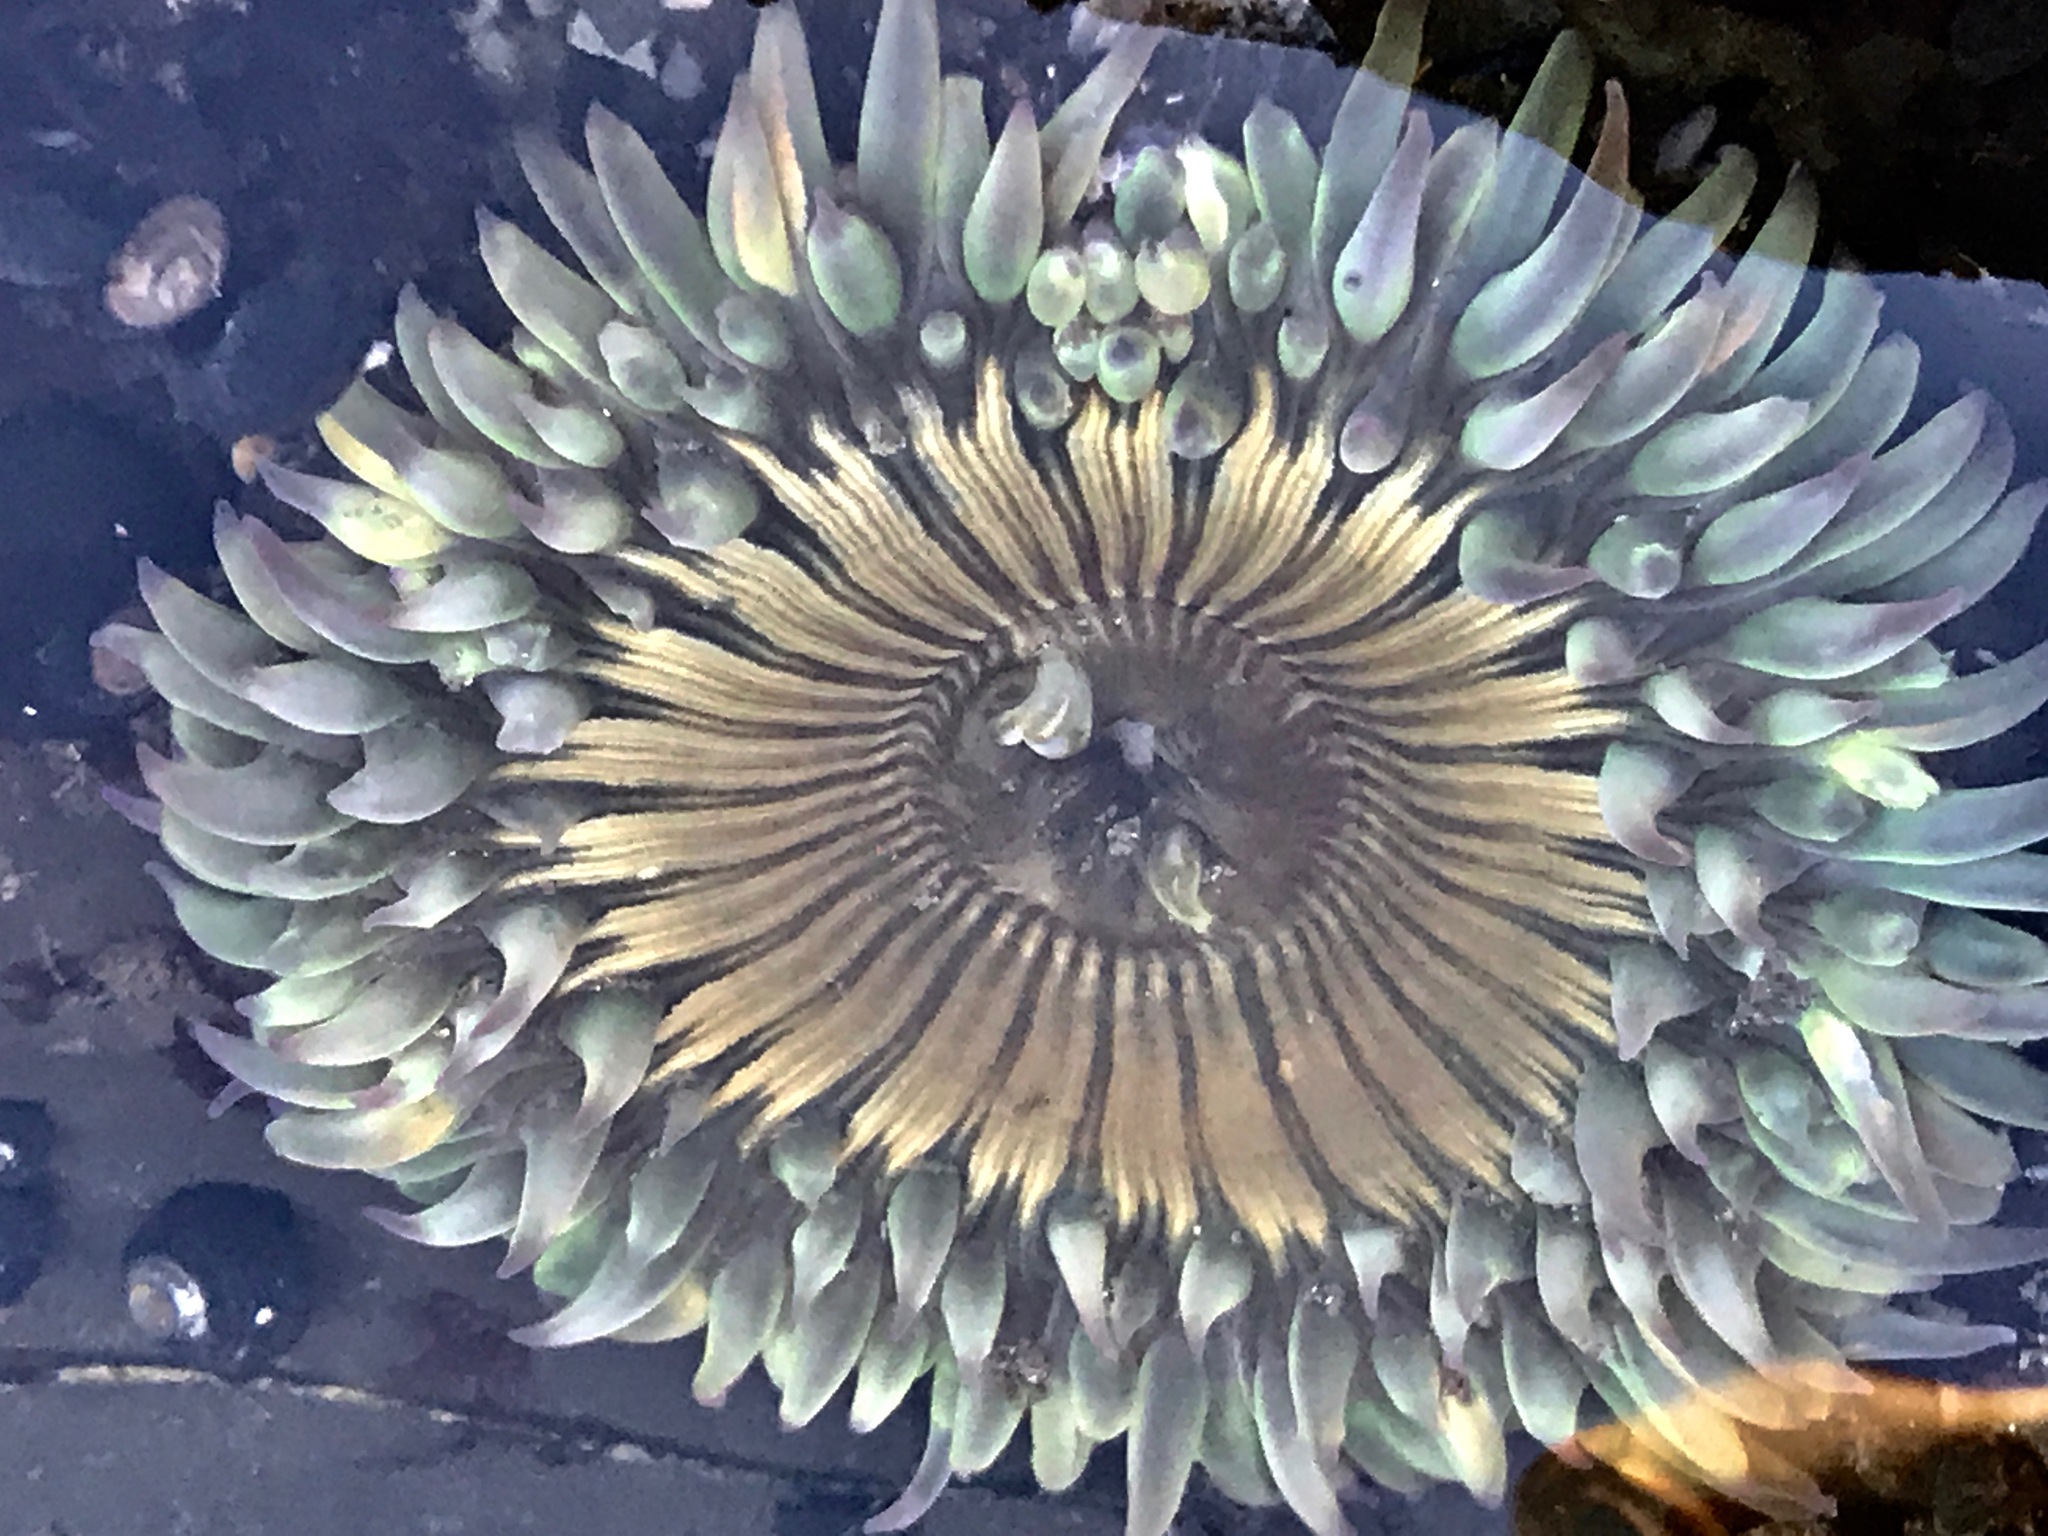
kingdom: Animalia
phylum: Cnidaria
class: Anthozoa
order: Actiniaria
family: Actiniidae
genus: Anthopleura
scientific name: Anthopleura sola
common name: Sun anemone
